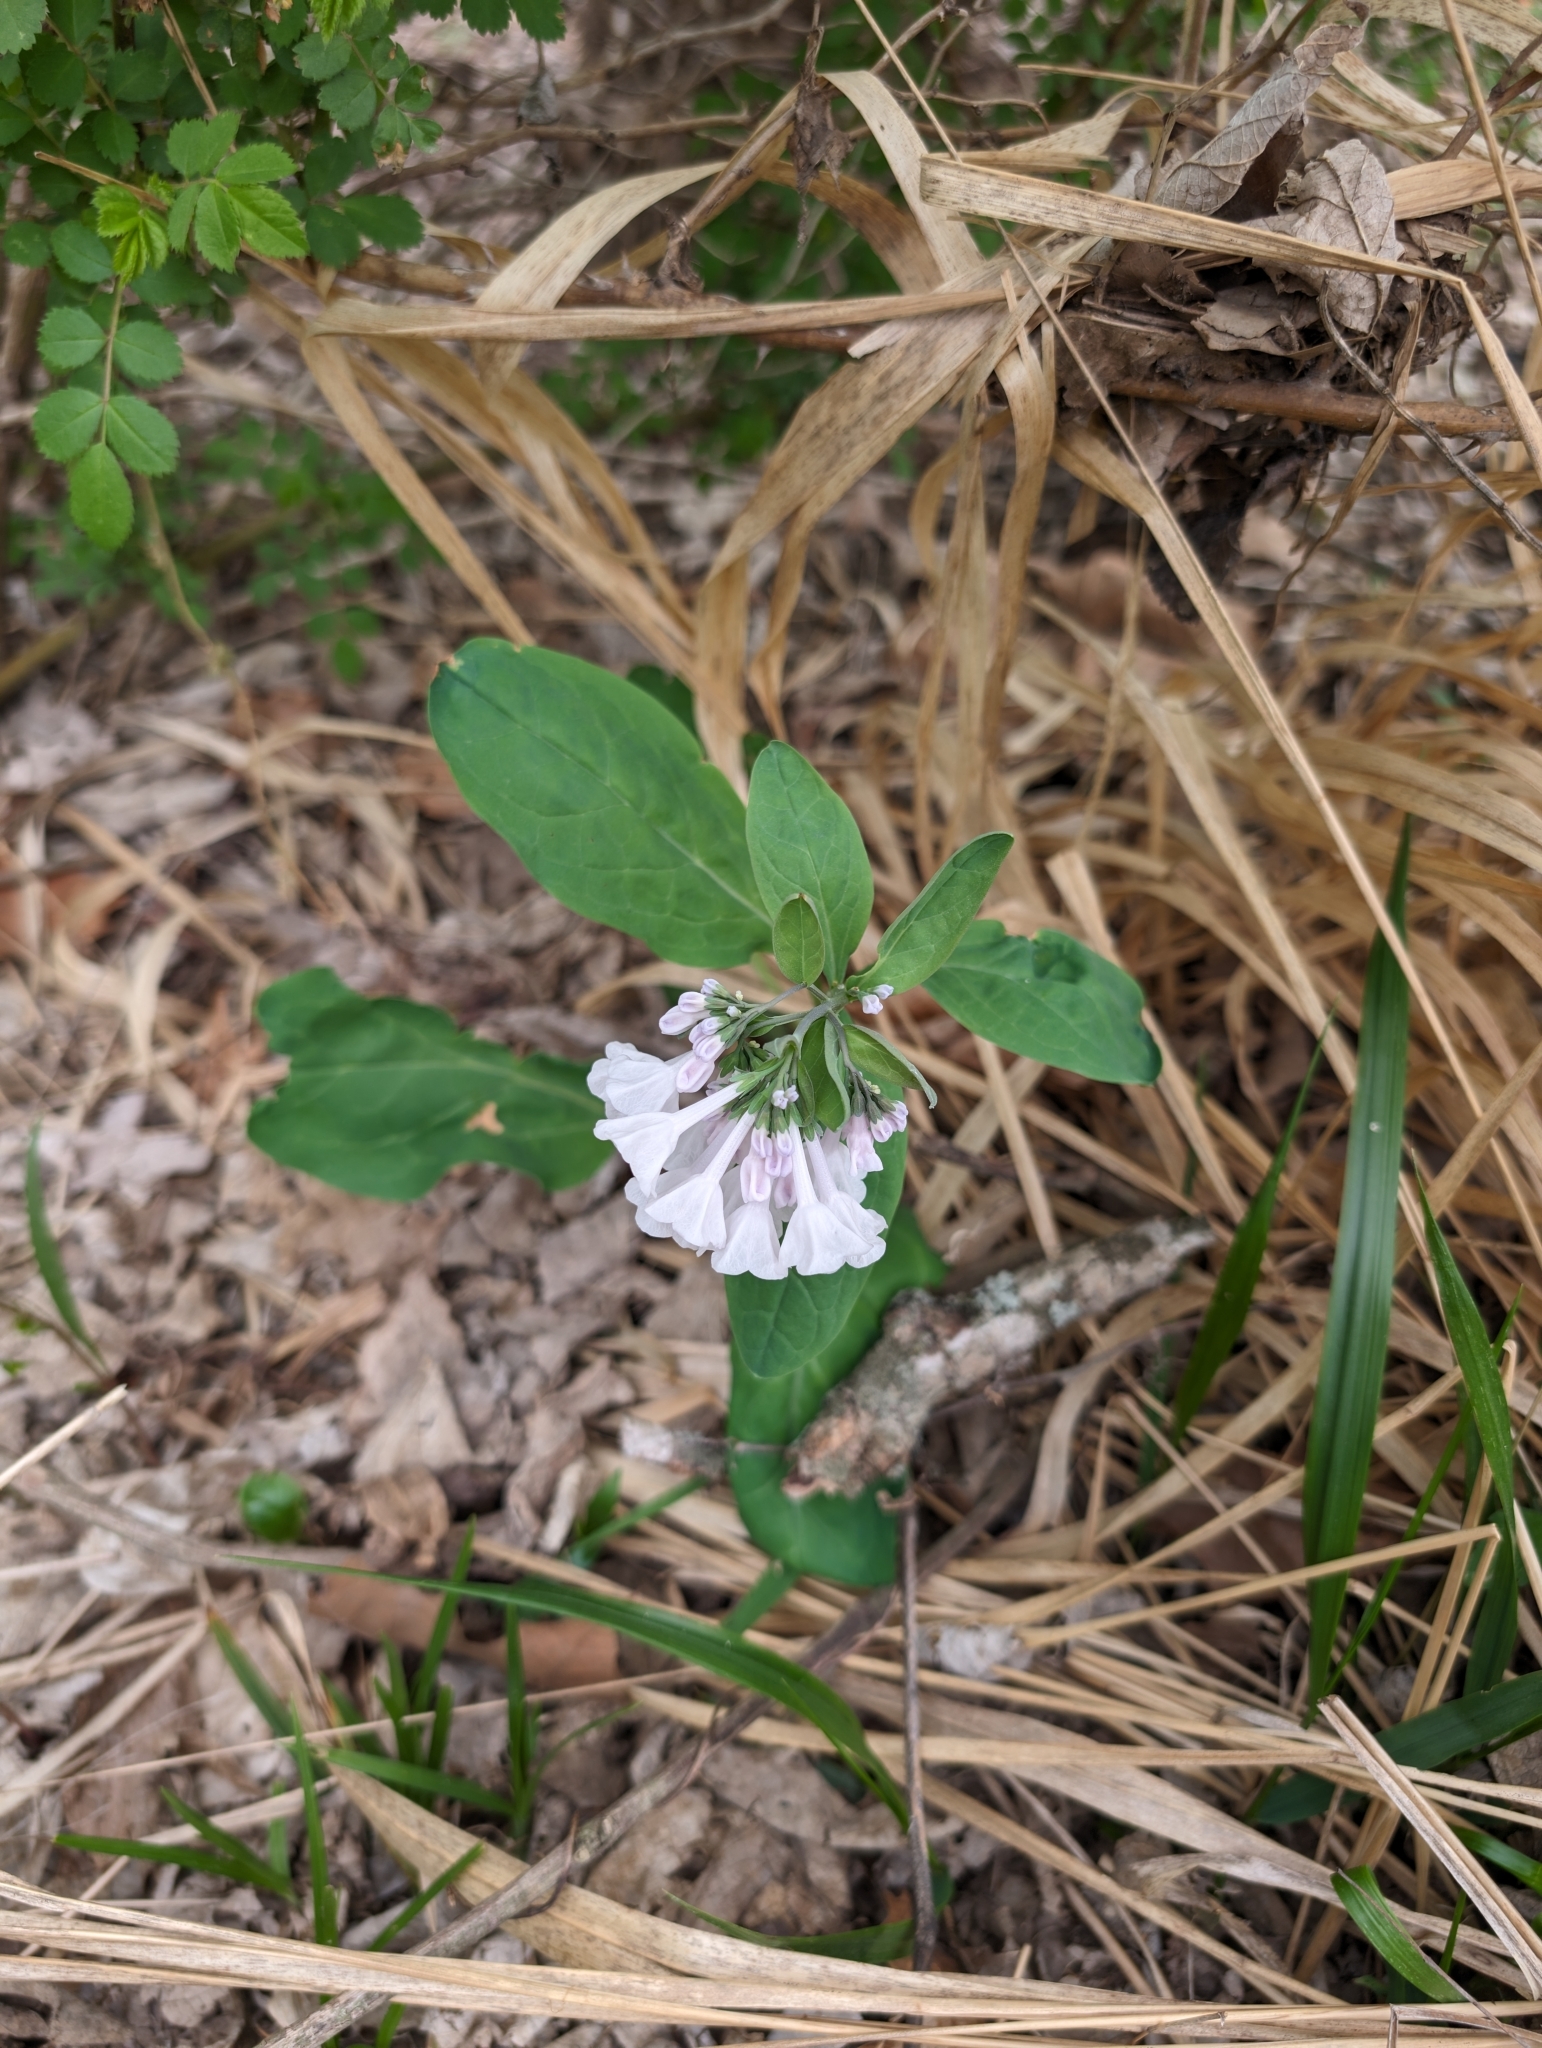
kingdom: Plantae
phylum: Tracheophyta
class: Magnoliopsida
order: Boraginales
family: Boraginaceae
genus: Mertensia
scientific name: Mertensia virginica
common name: Virginia bluebells
